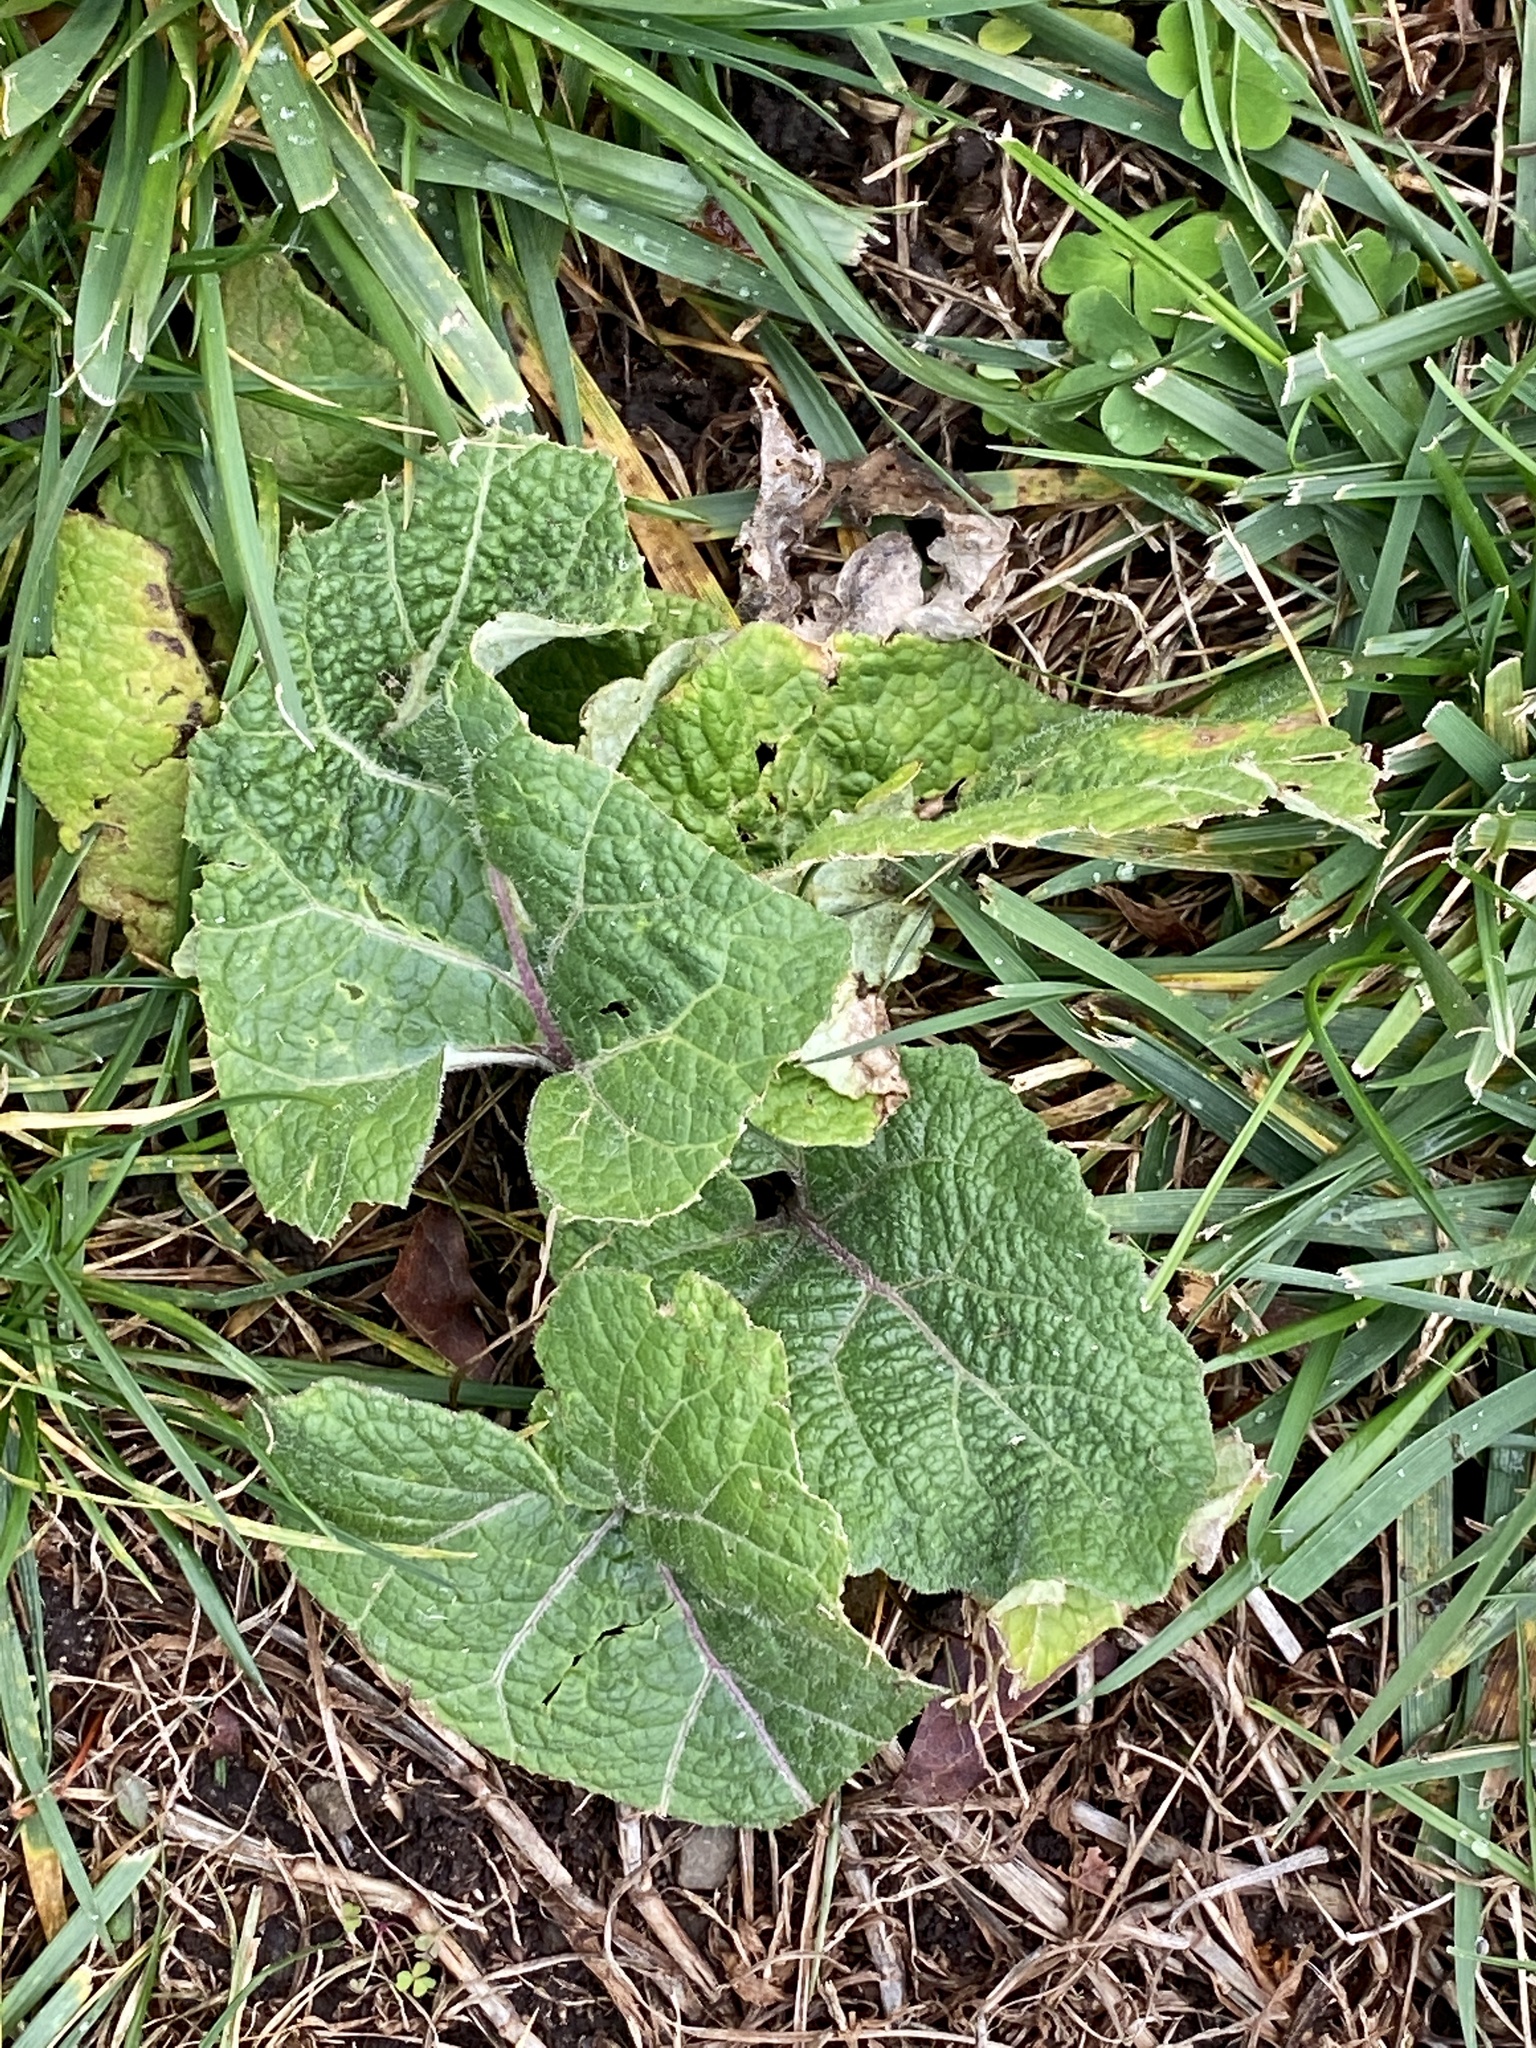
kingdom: Plantae
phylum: Tracheophyta
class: Magnoliopsida
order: Asterales
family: Asteraceae
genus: Arctium
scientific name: Arctium
